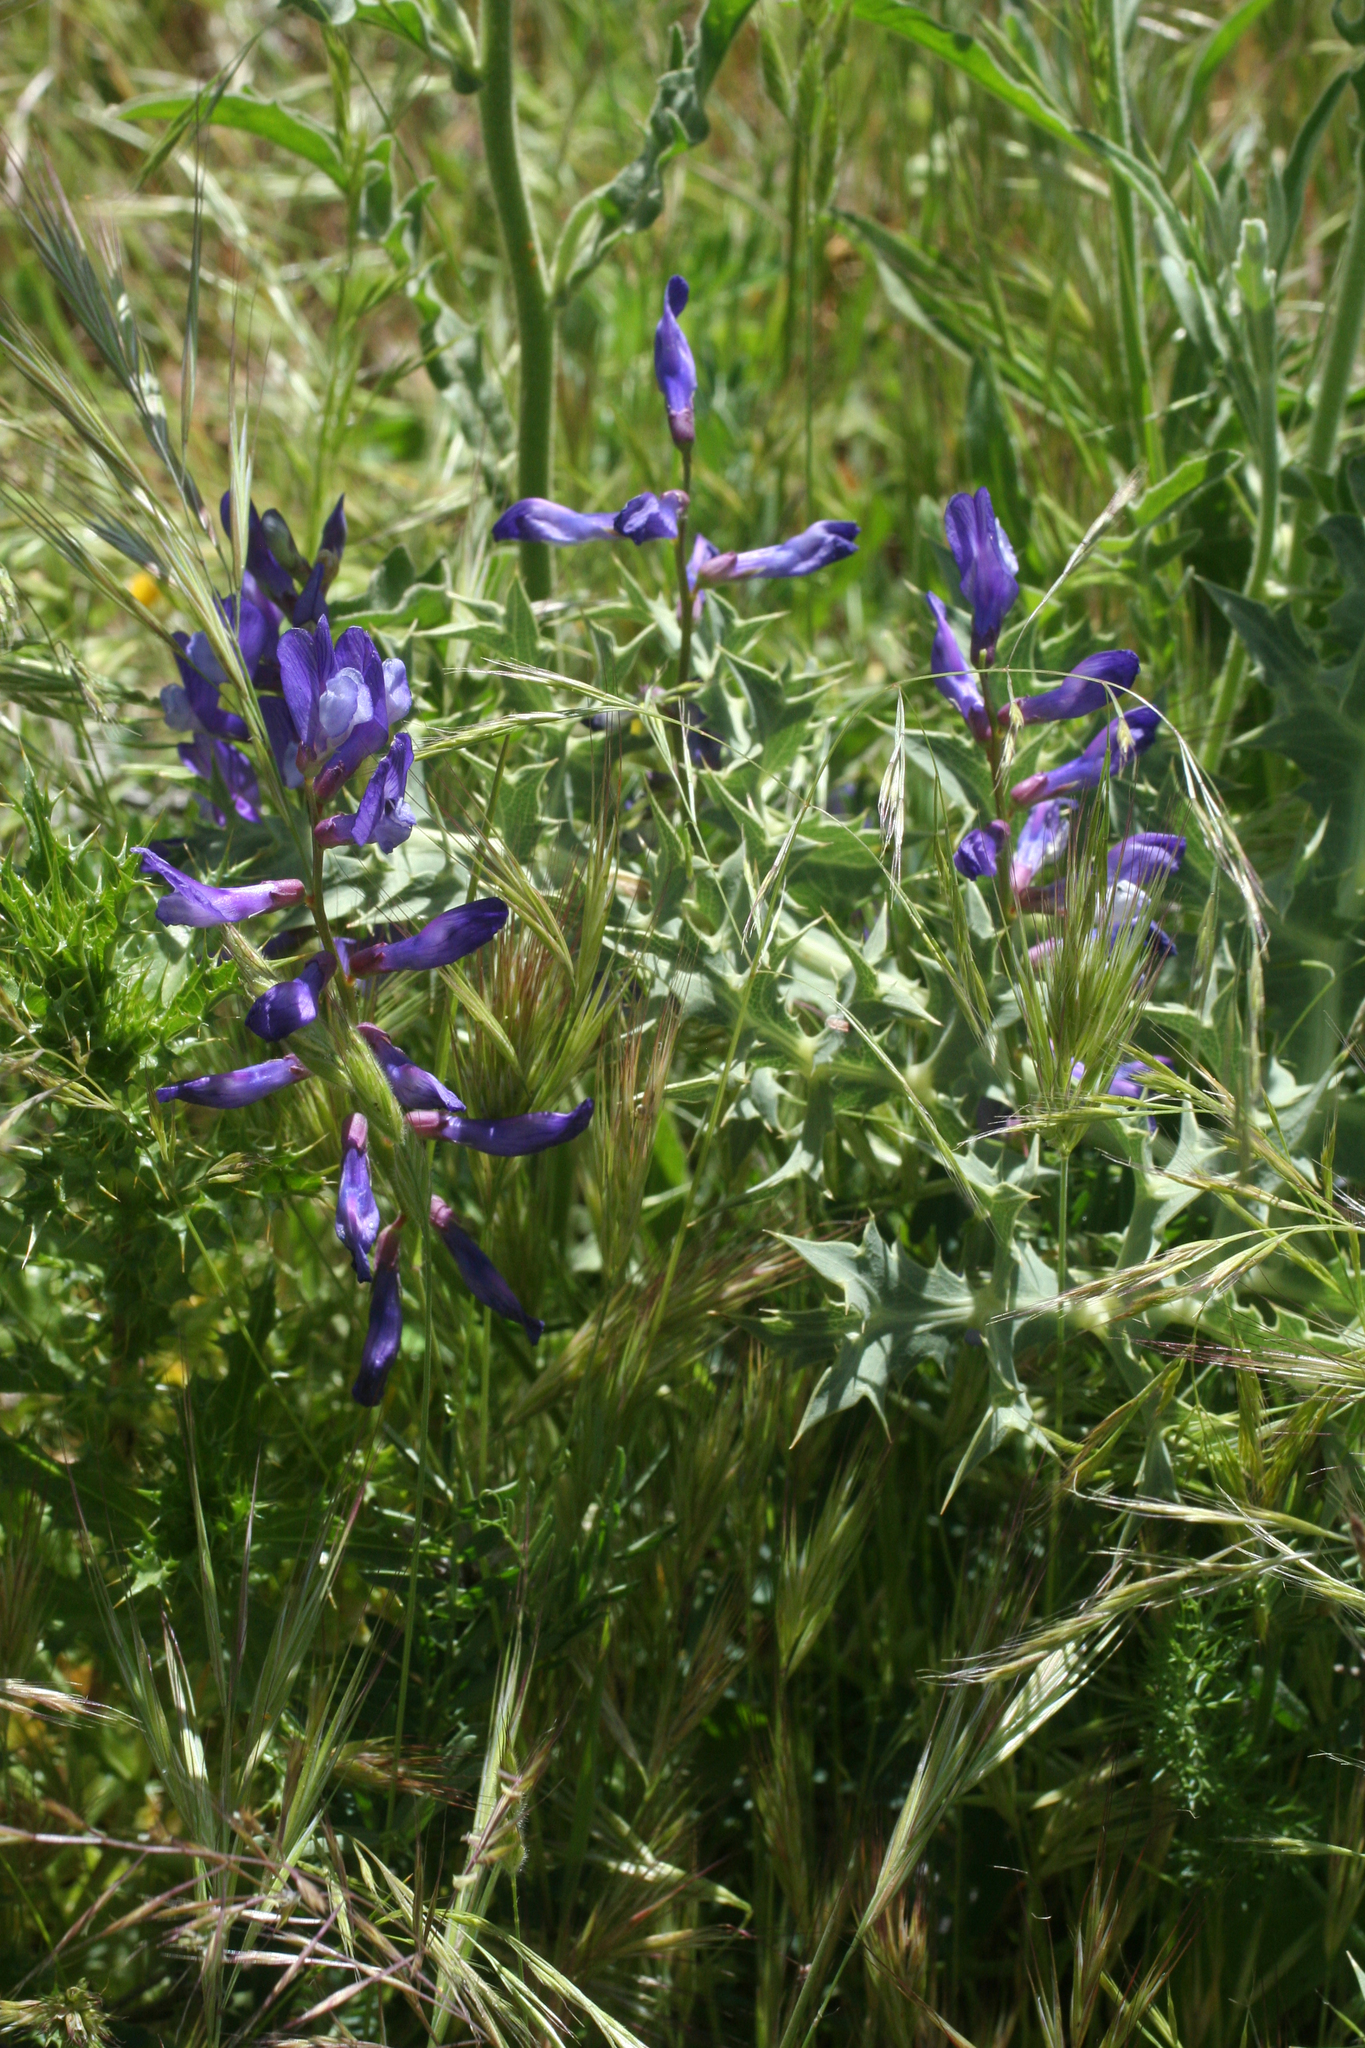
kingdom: Plantae
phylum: Tracheophyta
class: Magnoliopsida
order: Fabales
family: Fabaceae
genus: Vicia
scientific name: Vicia onobrychioides
